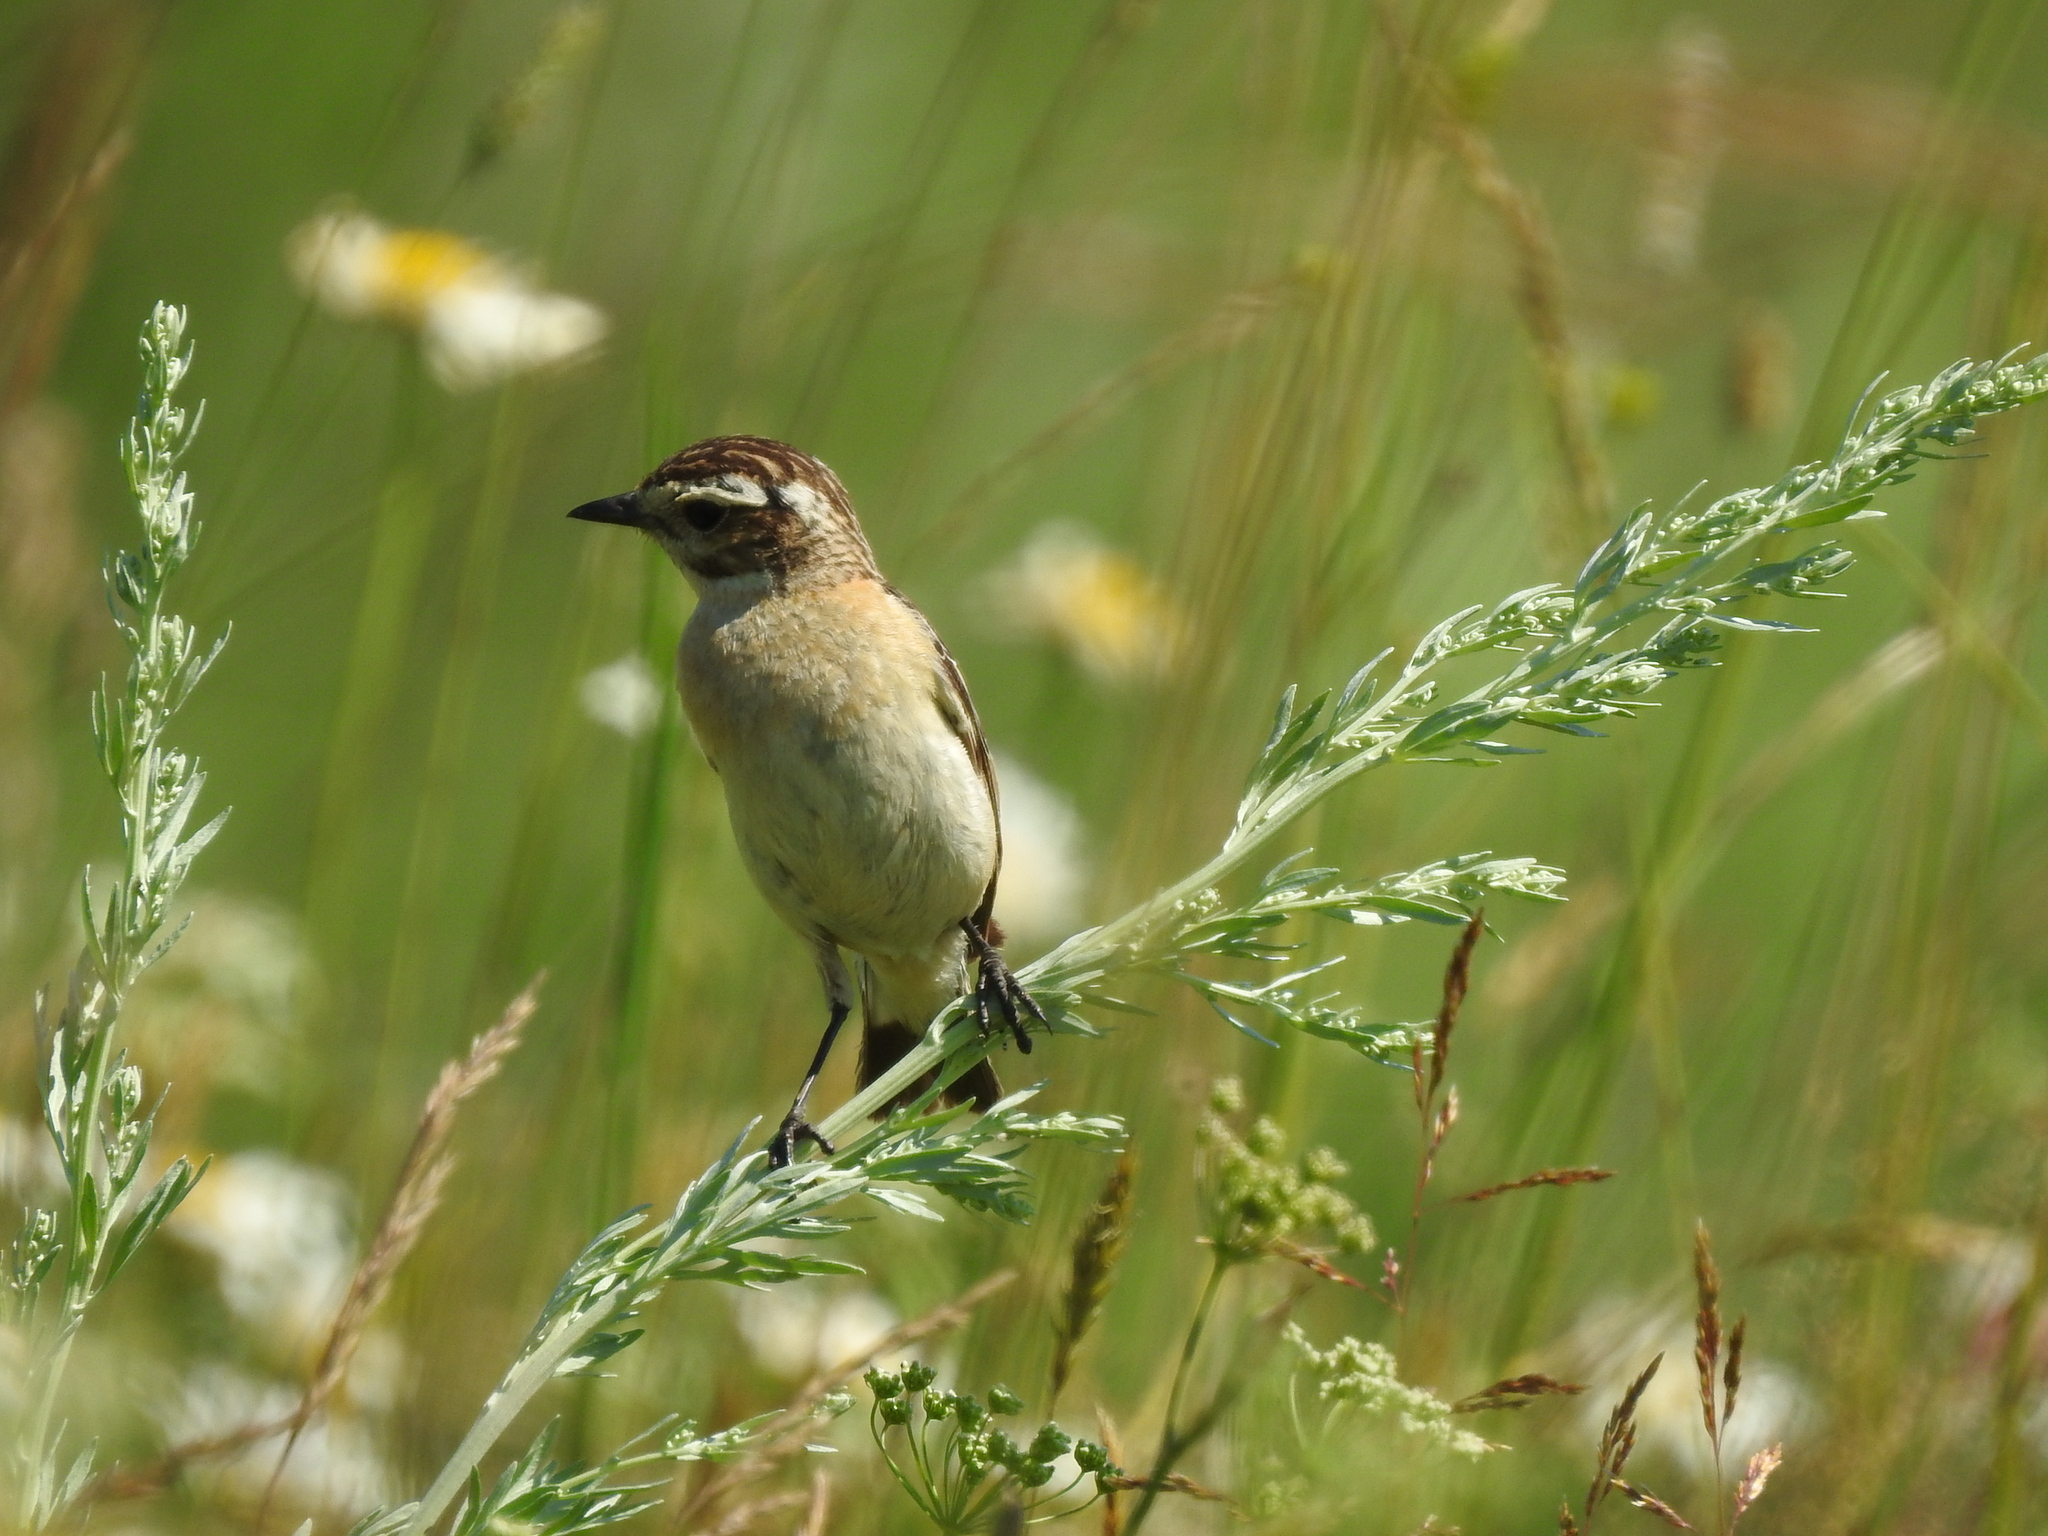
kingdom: Animalia
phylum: Chordata
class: Aves
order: Passeriformes
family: Muscicapidae
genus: Saxicola
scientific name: Saxicola rubetra
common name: Whinchat
